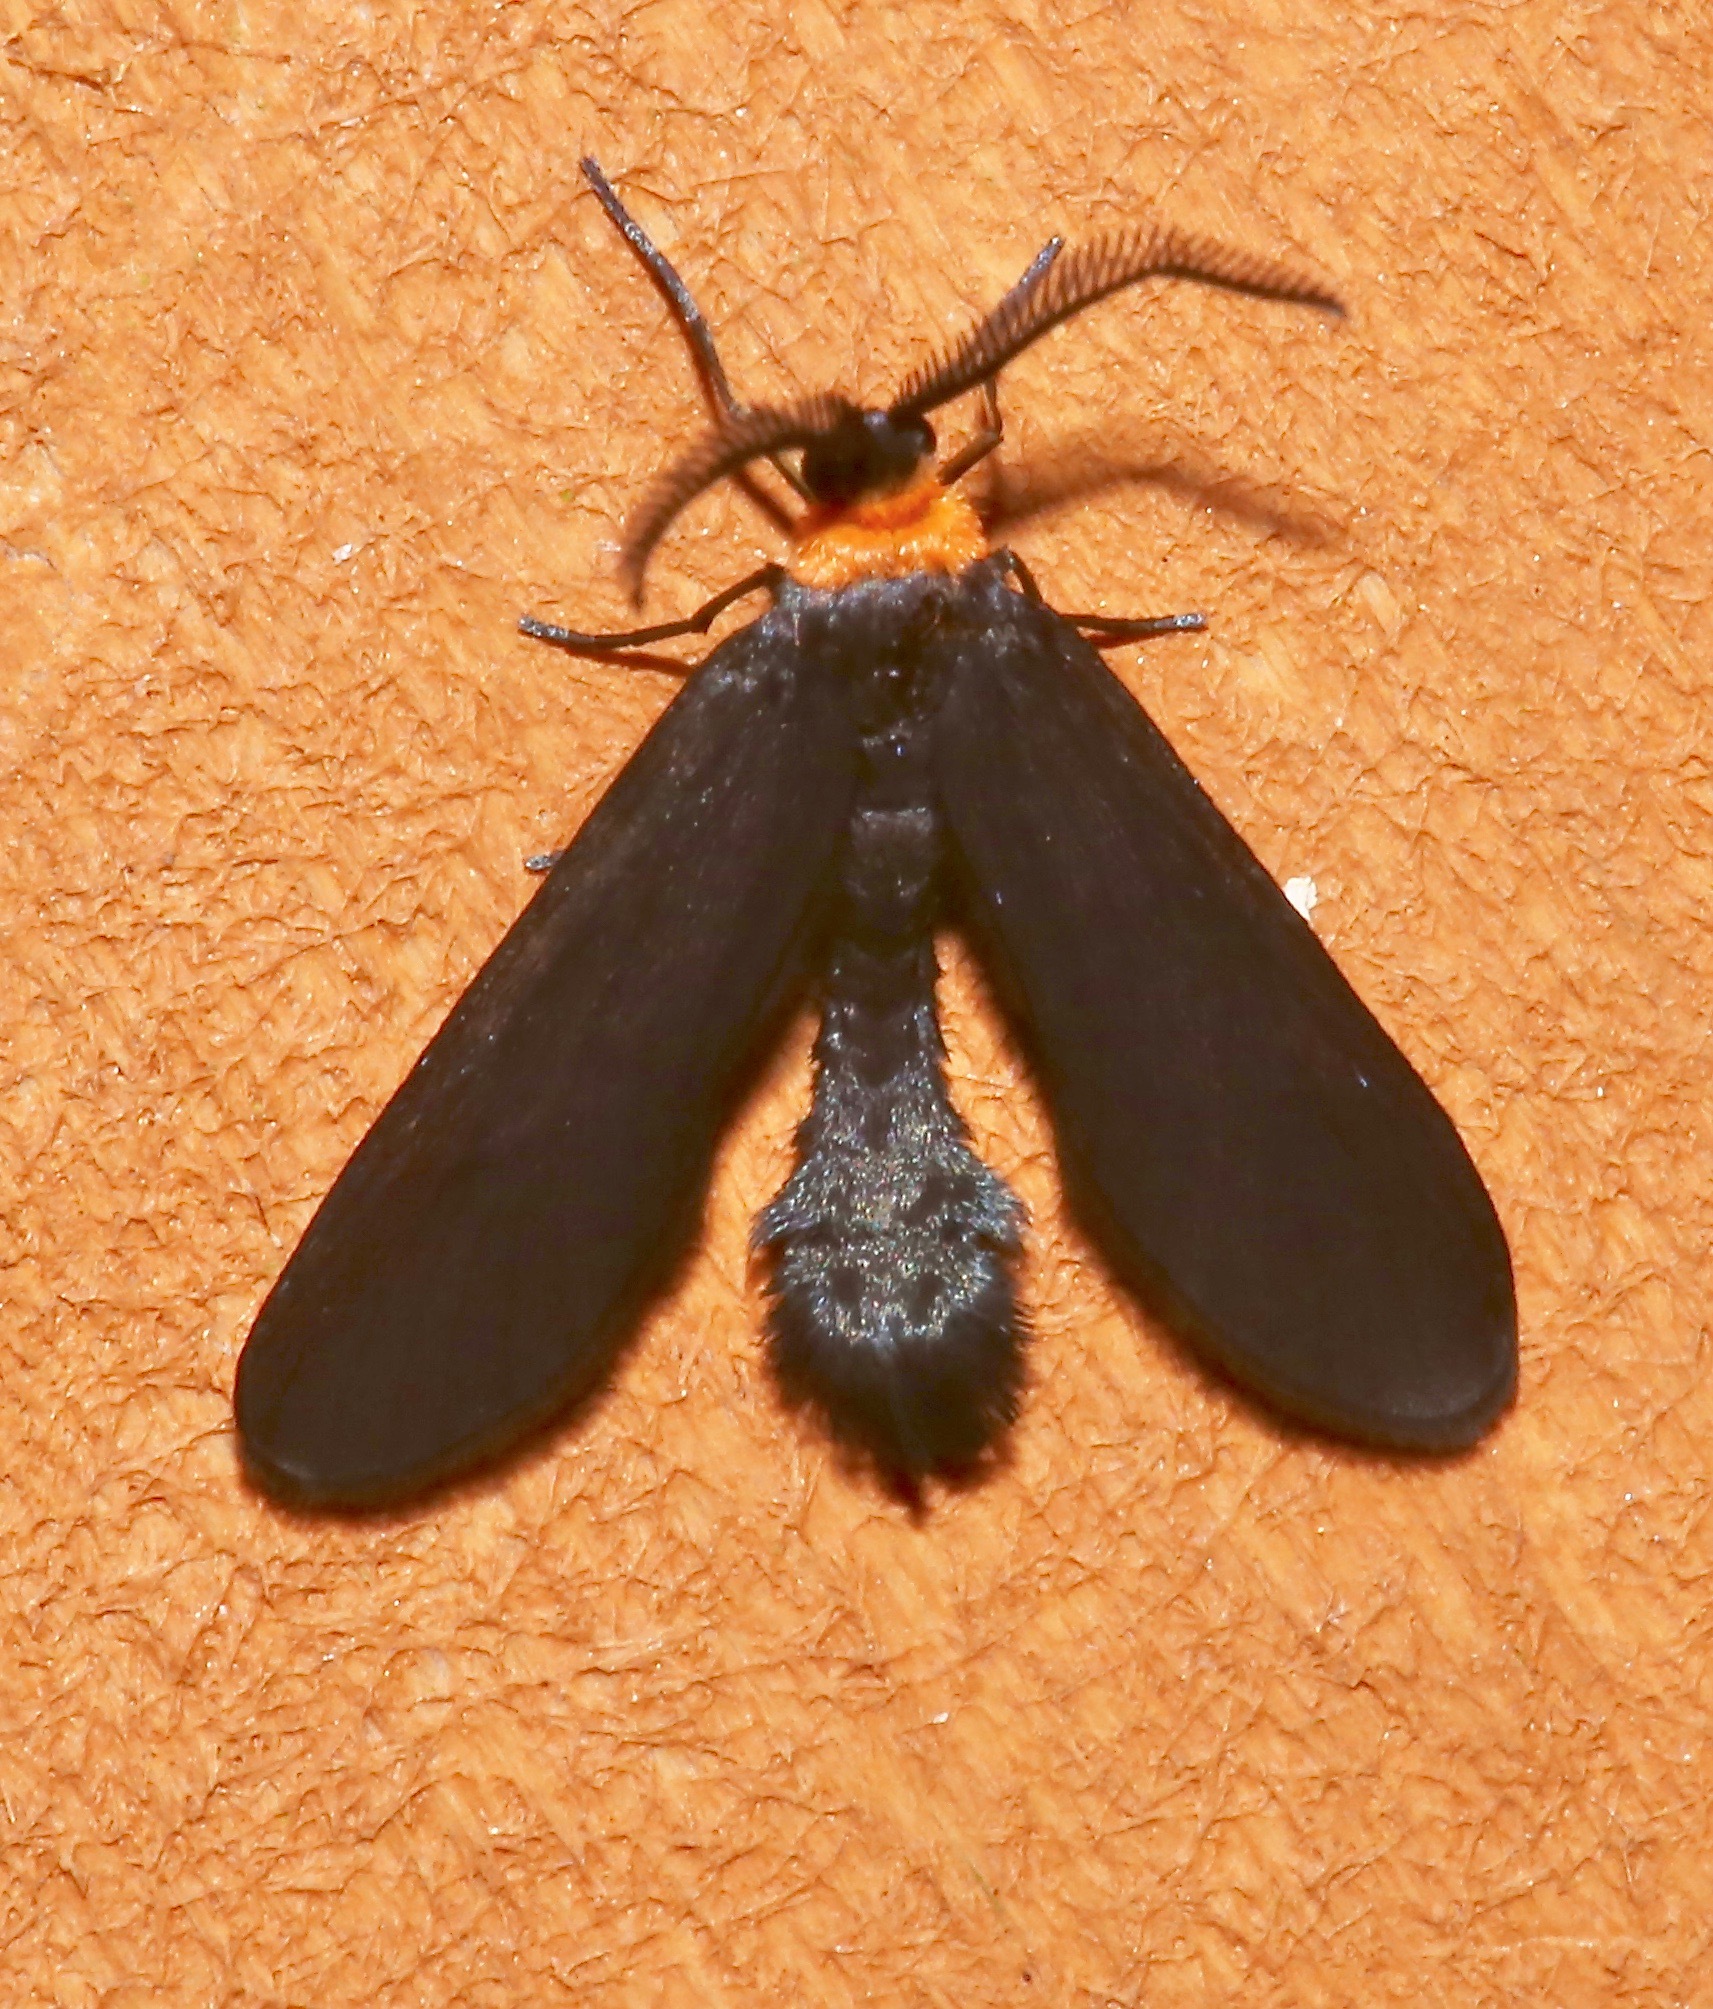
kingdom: Animalia
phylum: Arthropoda
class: Insecta
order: Lepidoptera
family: Zygaenidae
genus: Harrisina
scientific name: Harrisina americana
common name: Grapeleaf skeletonizer moth
